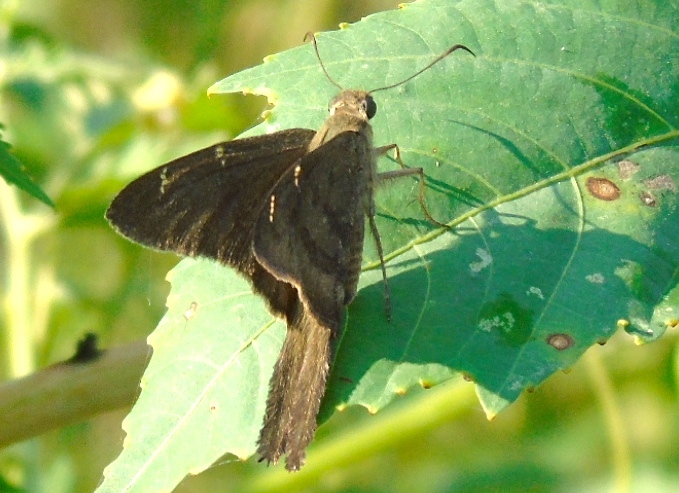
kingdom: Animalia
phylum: Arthropoda
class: Insecta
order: Lepidoptera
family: Hesperiidae
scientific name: Hesperiidae
